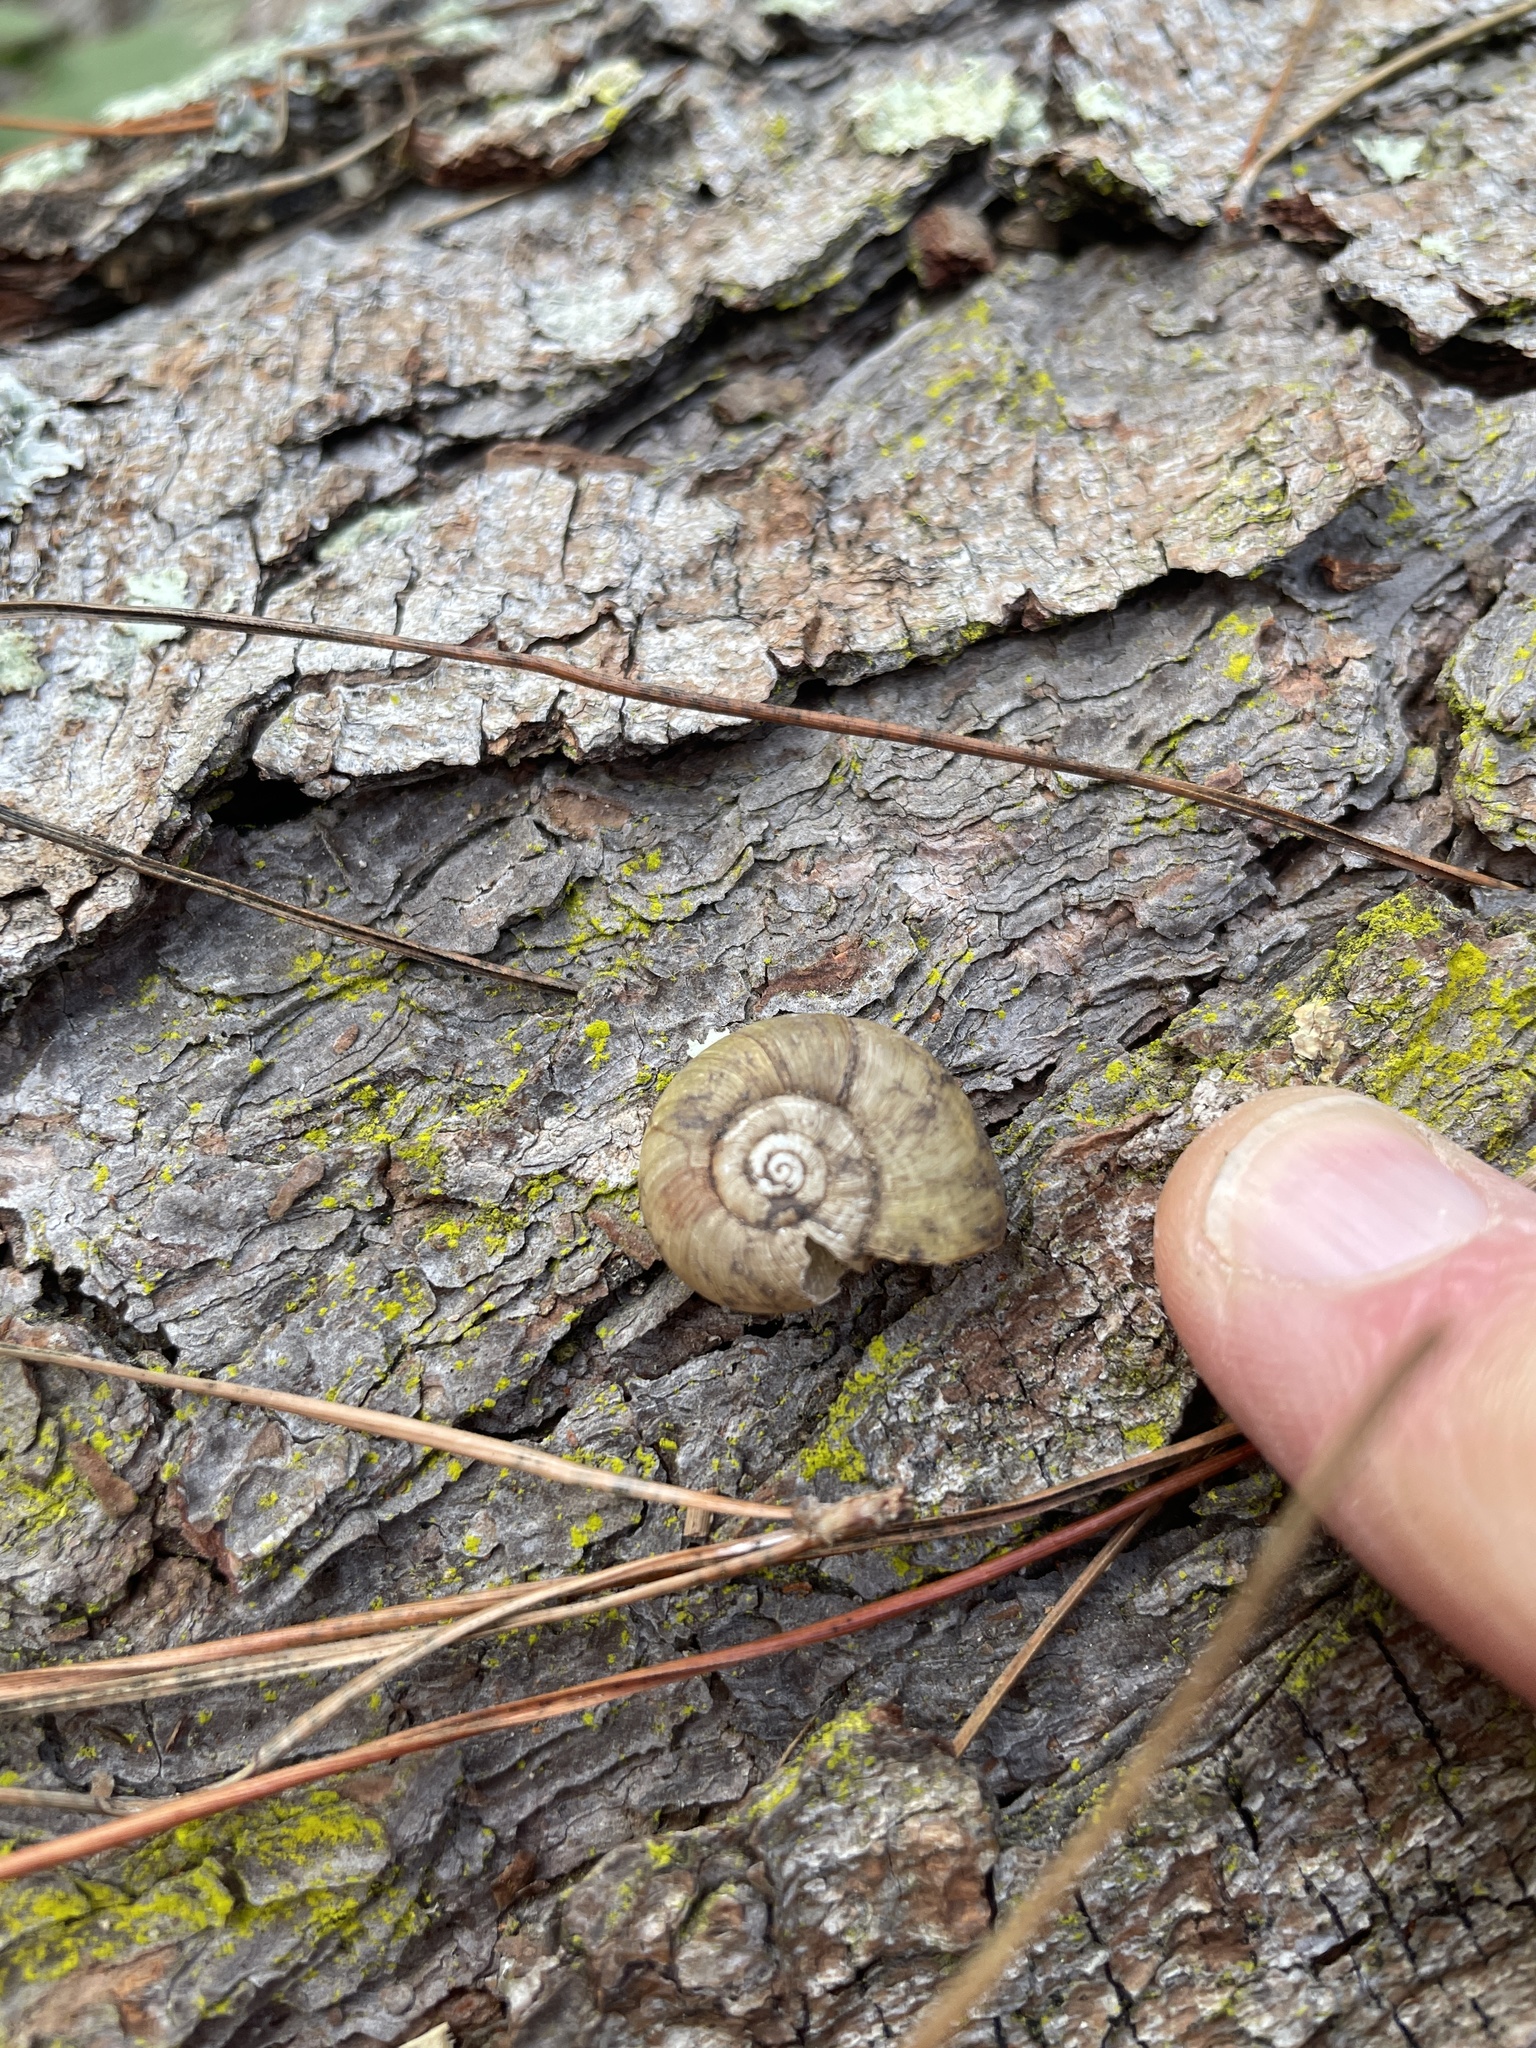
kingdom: Animalia
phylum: Mollusca
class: Gastropoda
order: Stylommatophora
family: Haplotrematidae
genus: Haplotrema
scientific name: Haplotrema minimum
